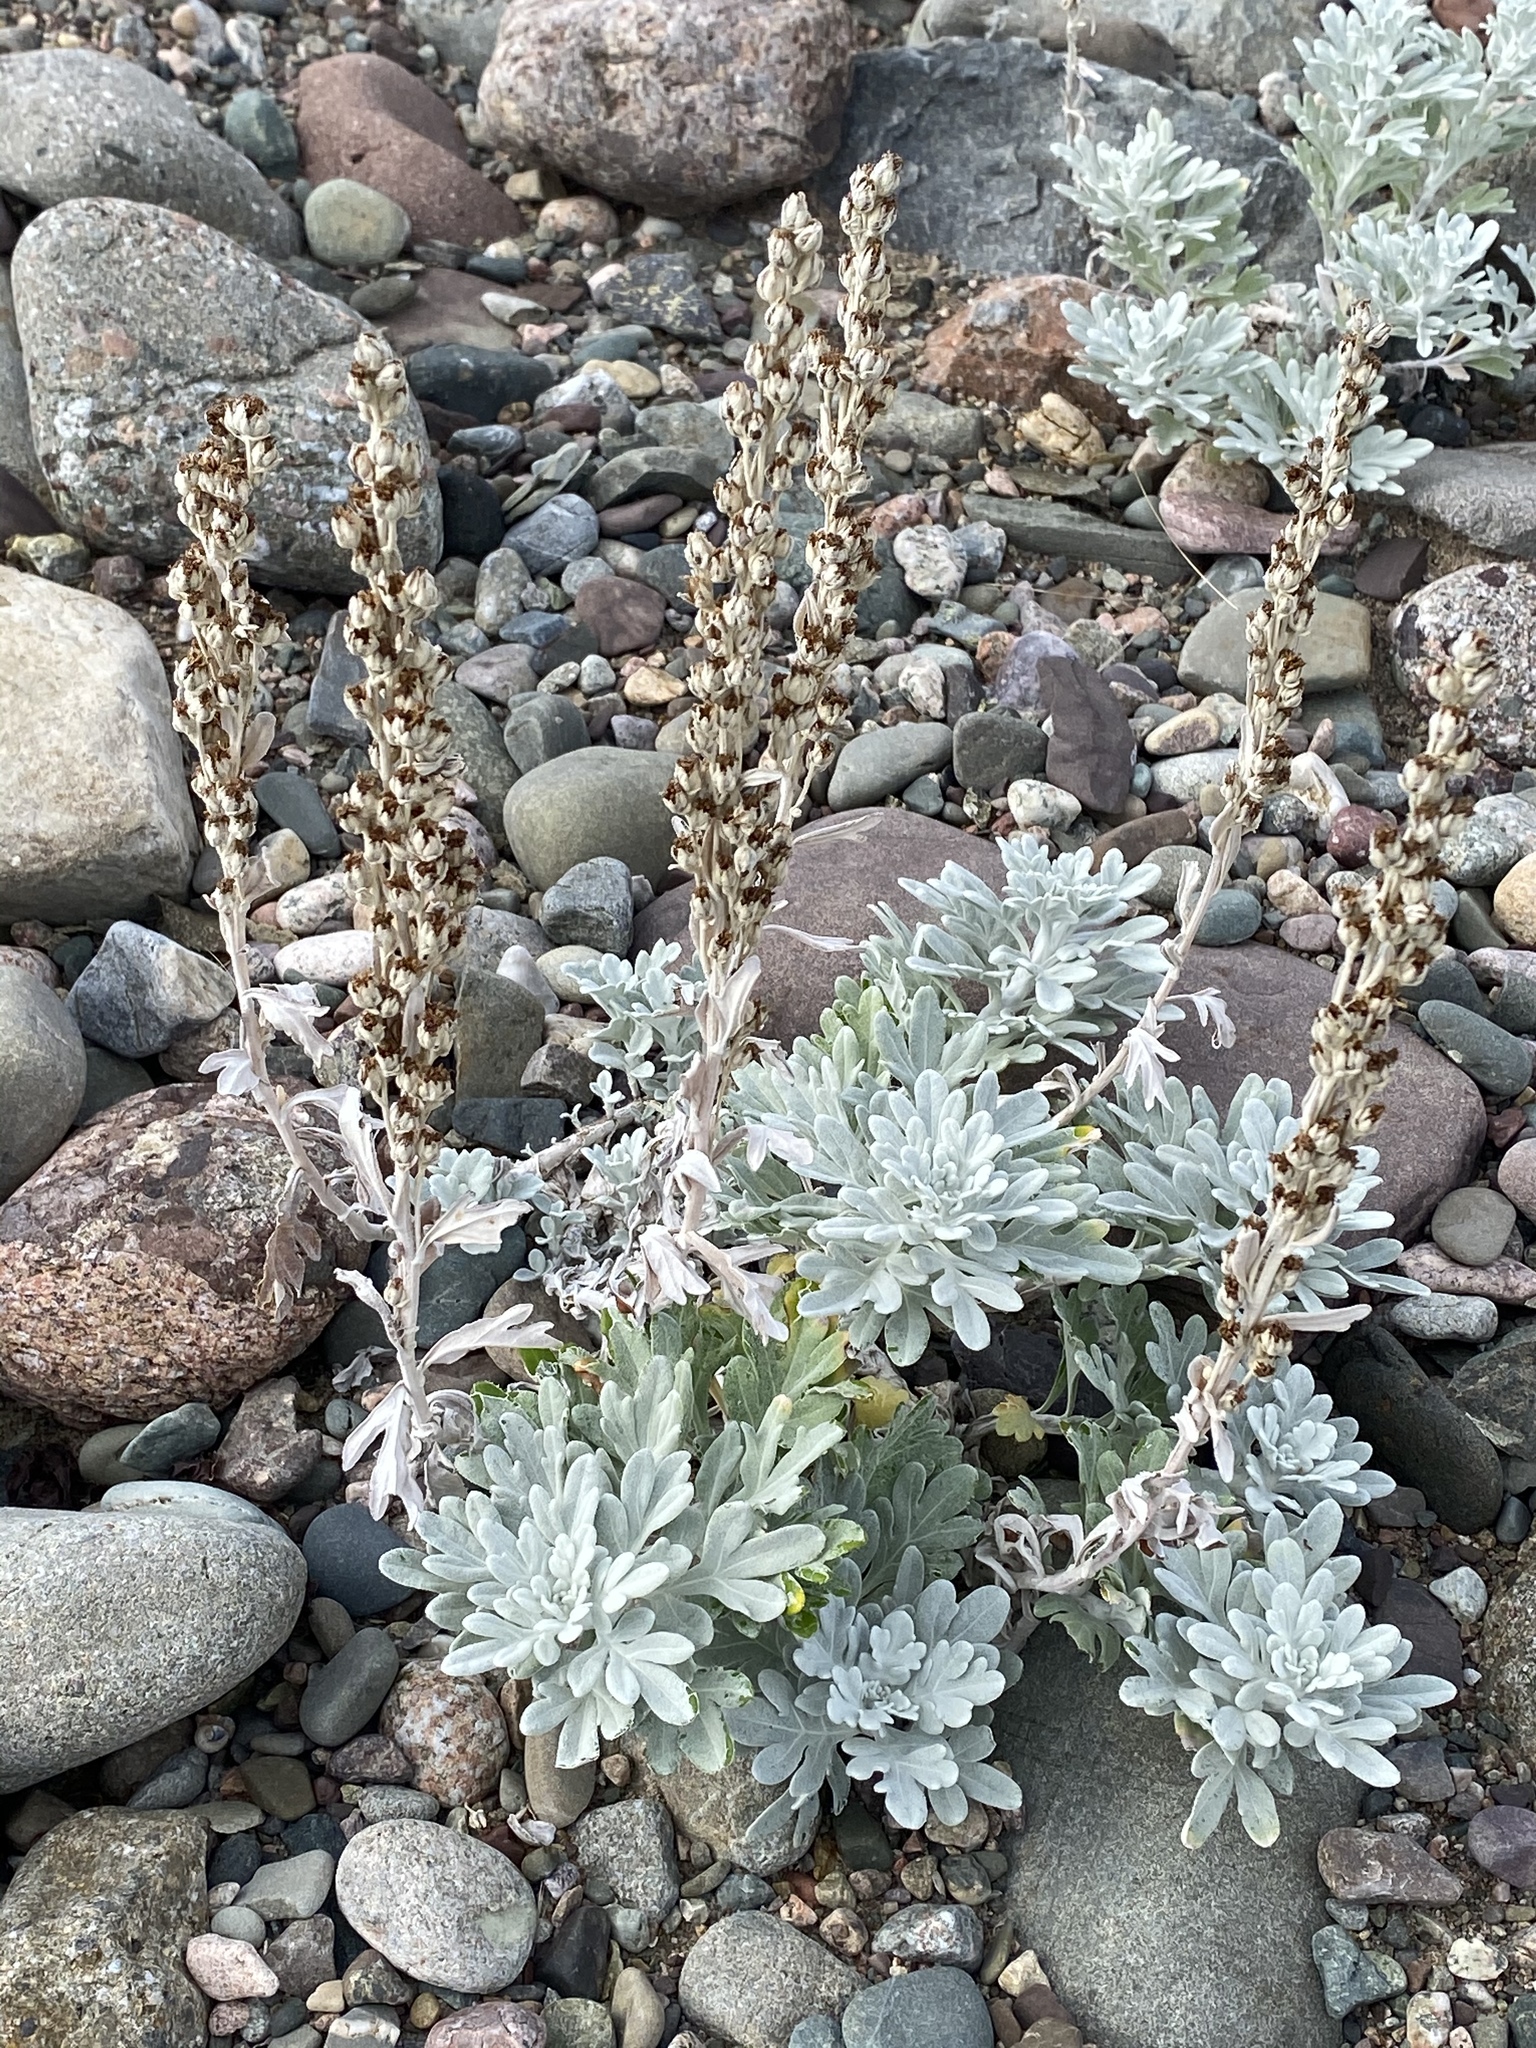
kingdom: Plantae
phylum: Tracheophyta
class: Magnoliopsida
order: Asterales
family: Asteraceae
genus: Artemisia
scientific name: Artemisia stelleriana
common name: Beach wormwood
